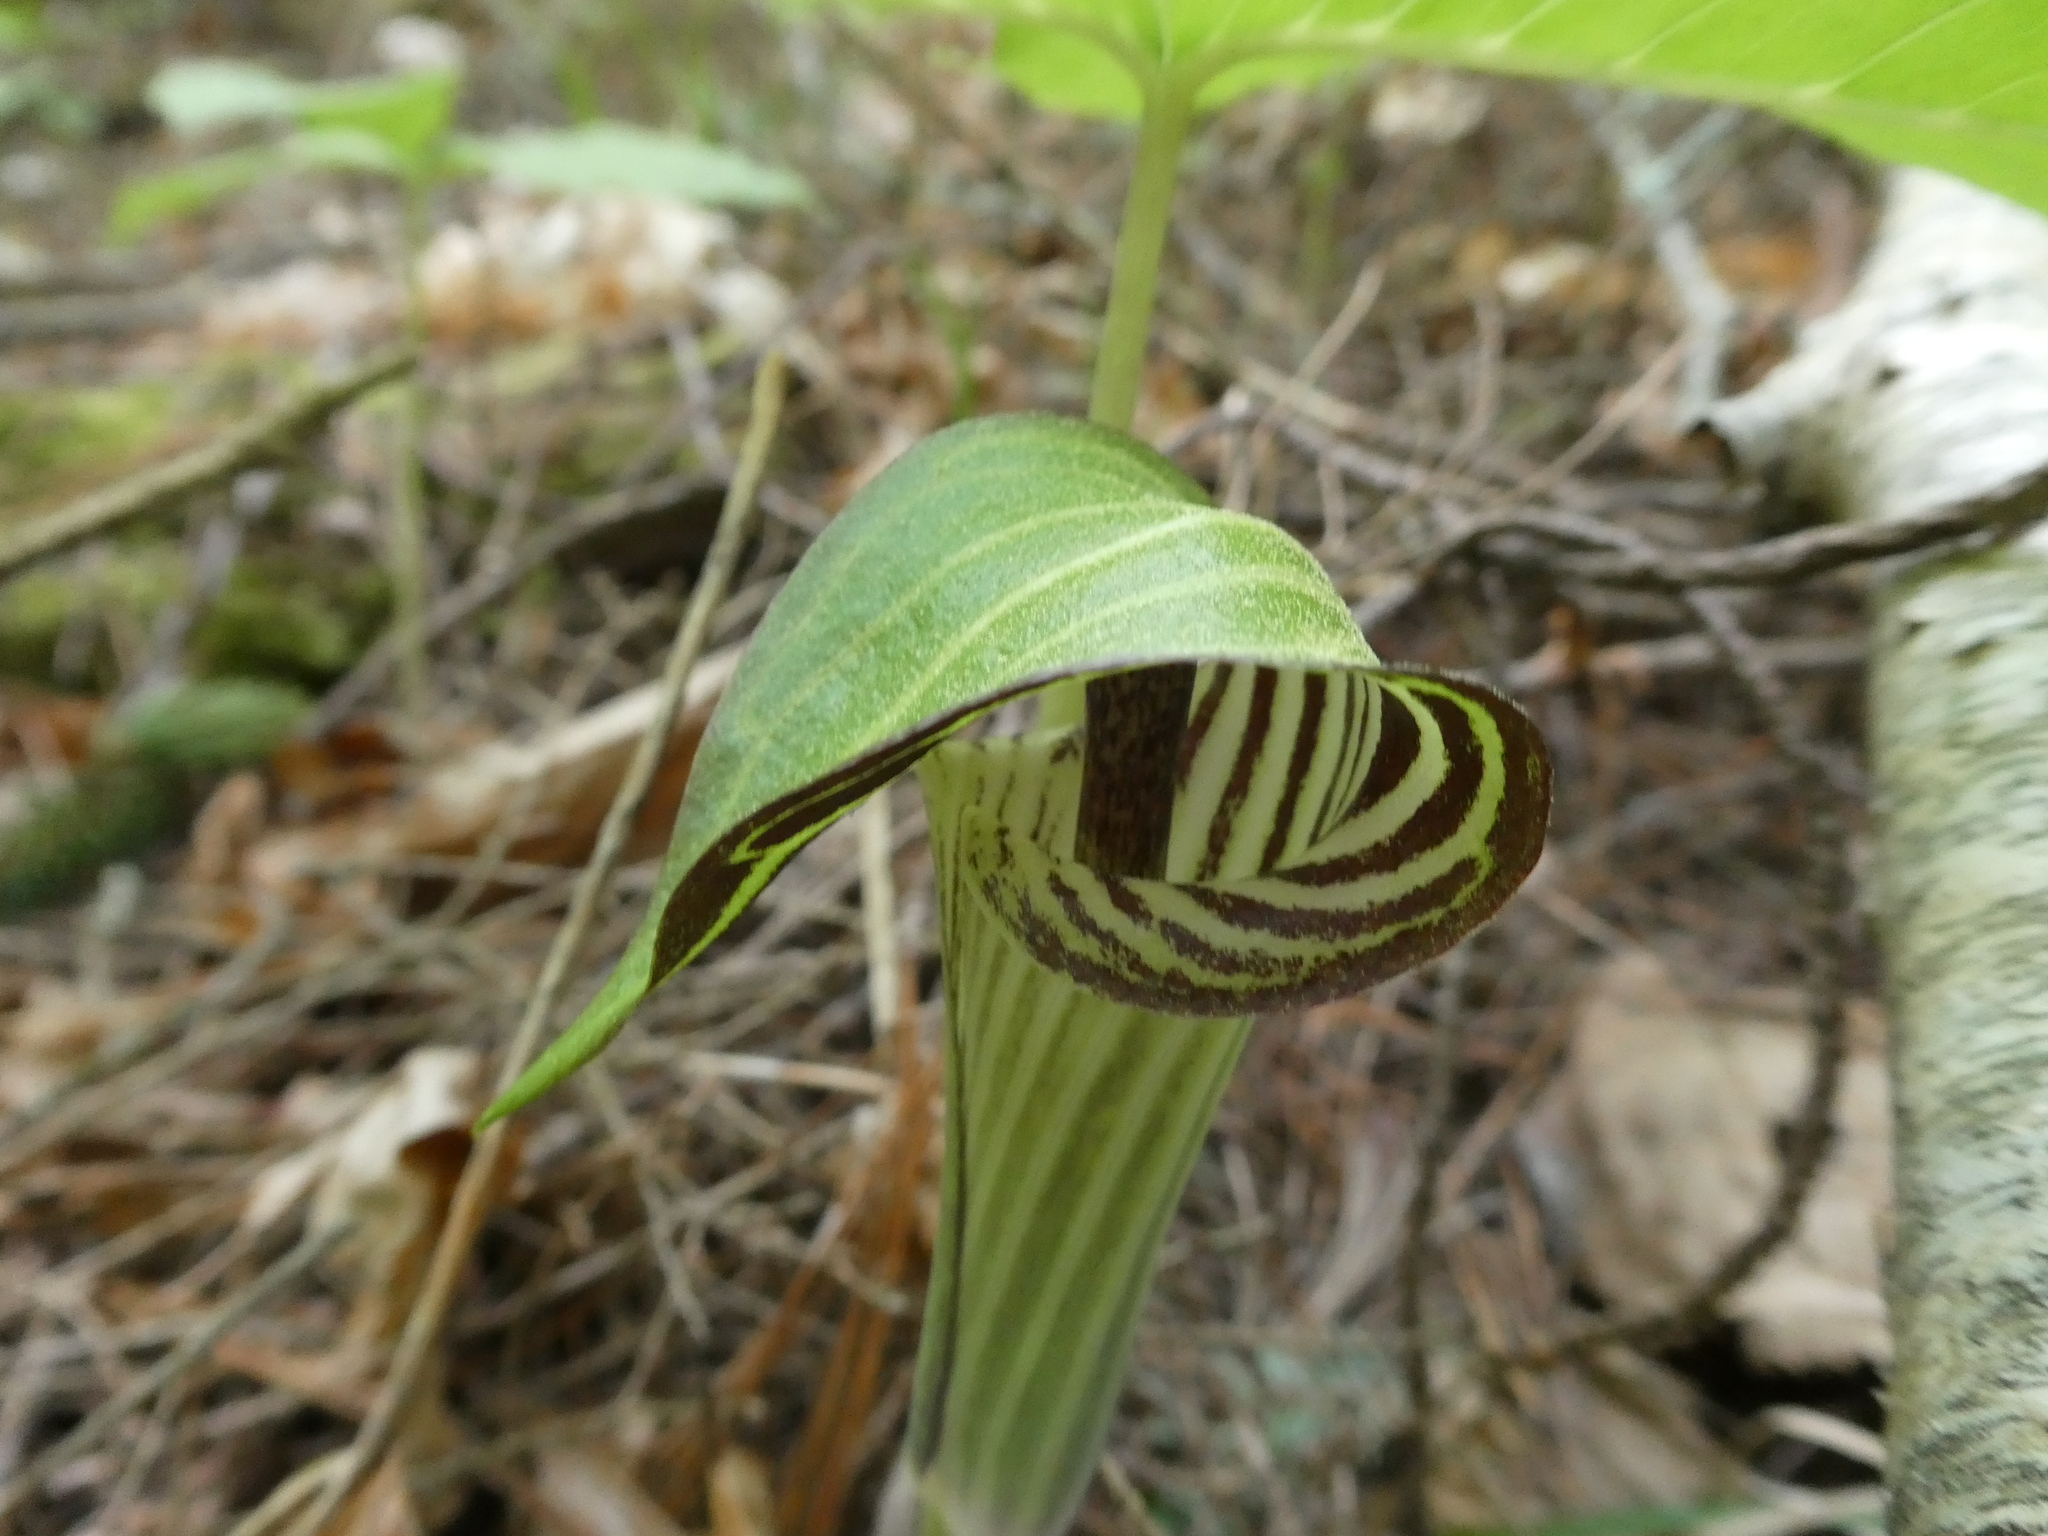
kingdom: Plantae
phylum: Tracheophyta
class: Liliopsida
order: Alismatales
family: Araceae
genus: Arisaema
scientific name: Arisaema triphyllum
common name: Jack-in-the-pulpit
